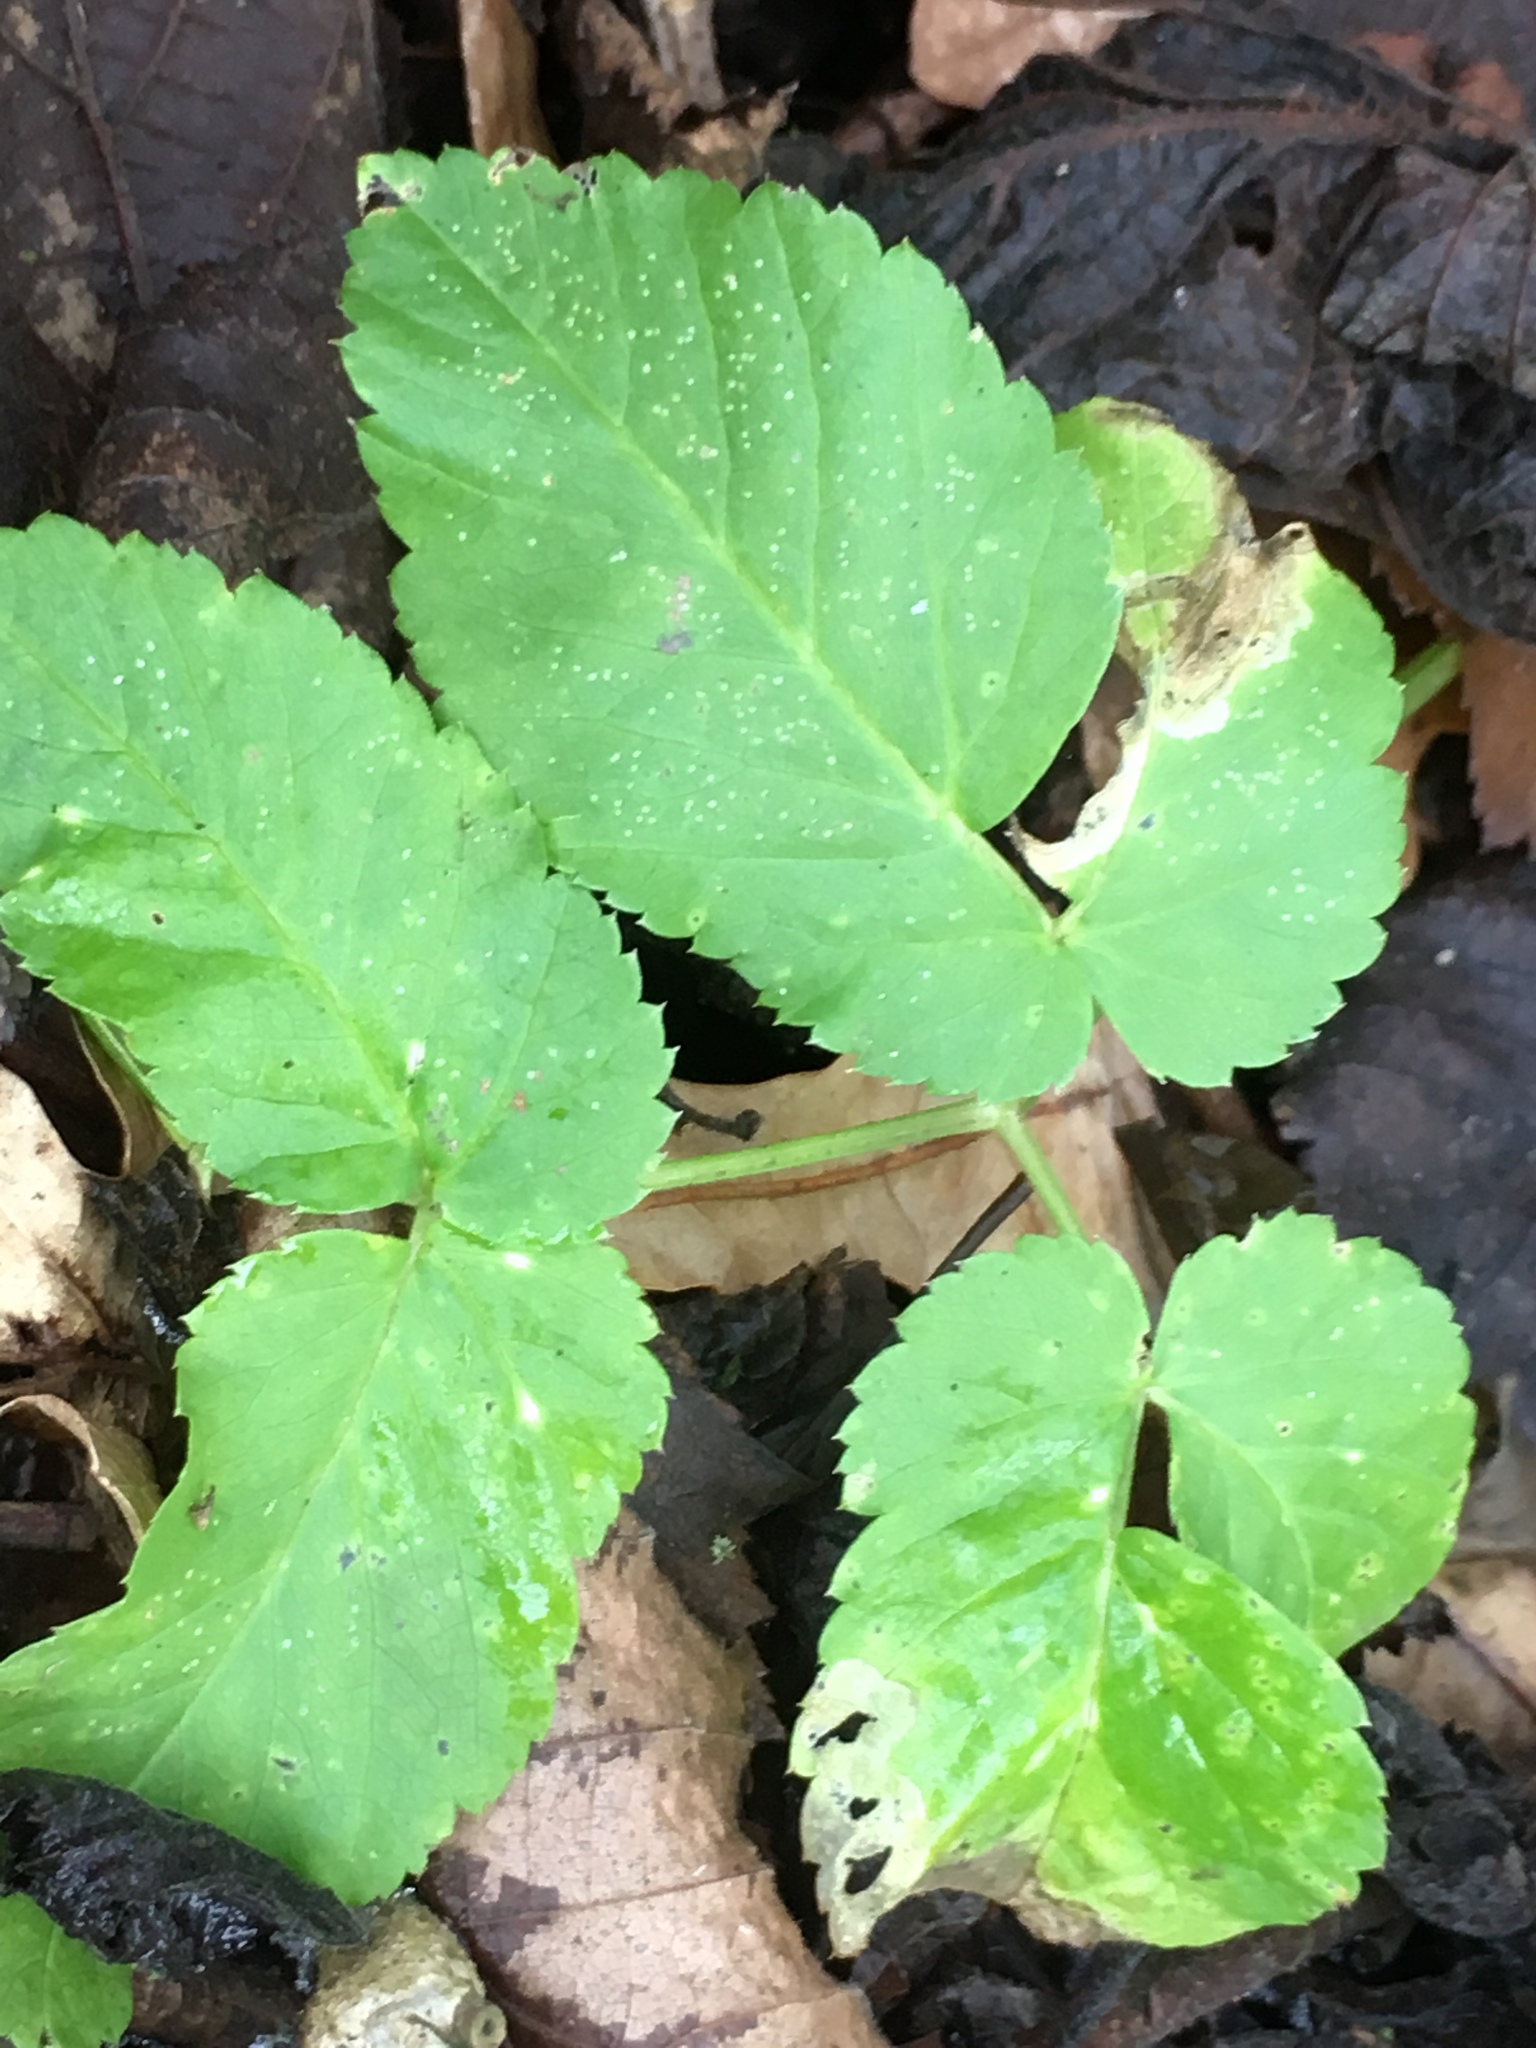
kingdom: Plantae
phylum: Tracheophyta
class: Magnoliopsida
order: Apiales
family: Apiaceae
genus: Aegopodium
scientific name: Aegopodium podagraria
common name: Ground-elder
